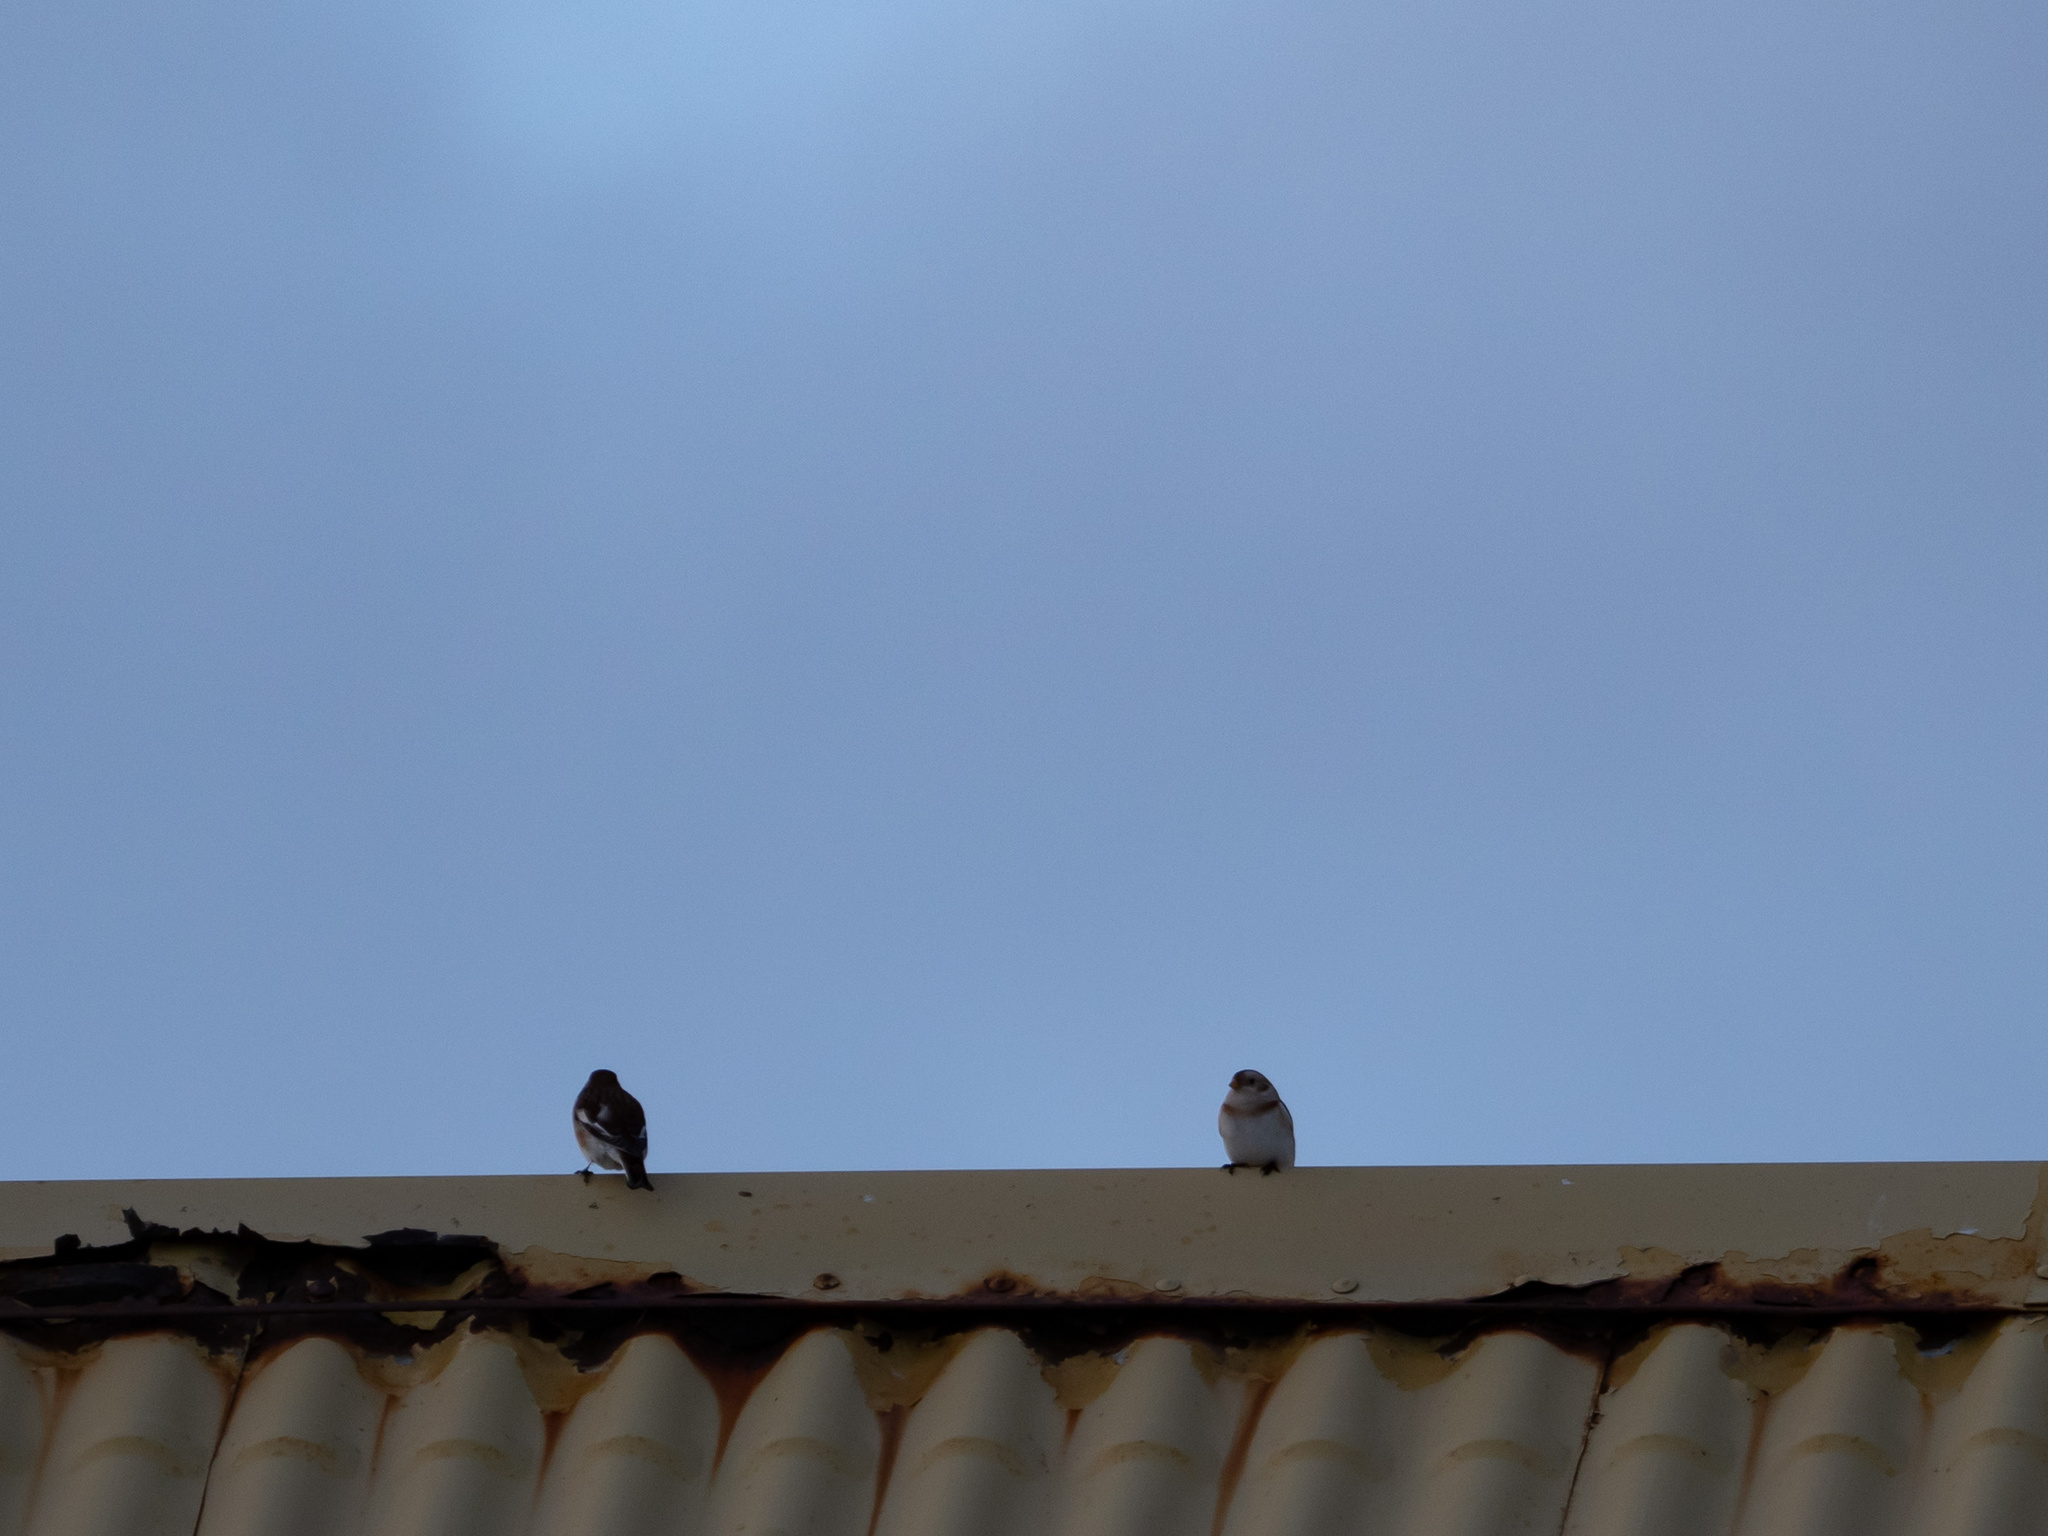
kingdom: Animalia
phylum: Chordata
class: Aves
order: Passeriformes
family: Calcariidae
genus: Plectrophenax
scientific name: Plectrophenax nivalis
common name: Snow bunting
